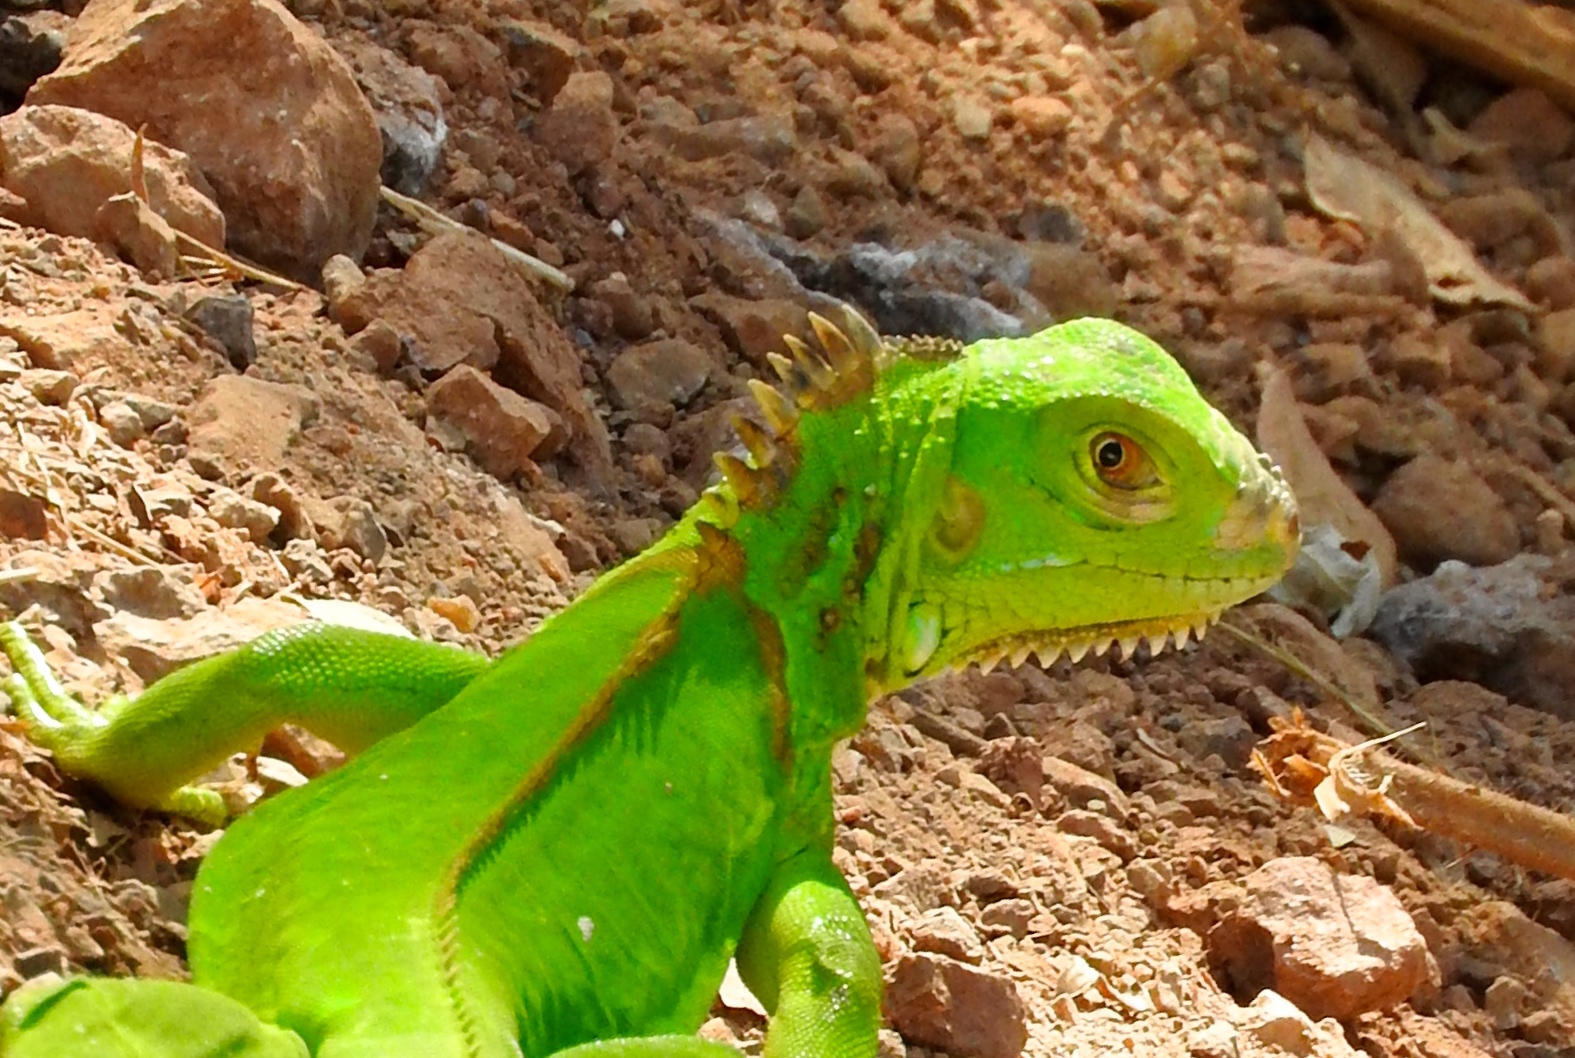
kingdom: Animalia
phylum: Chordata
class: Squamata
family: Iguanidae
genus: Iguana
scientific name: Iguana iguana
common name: Green iguana
